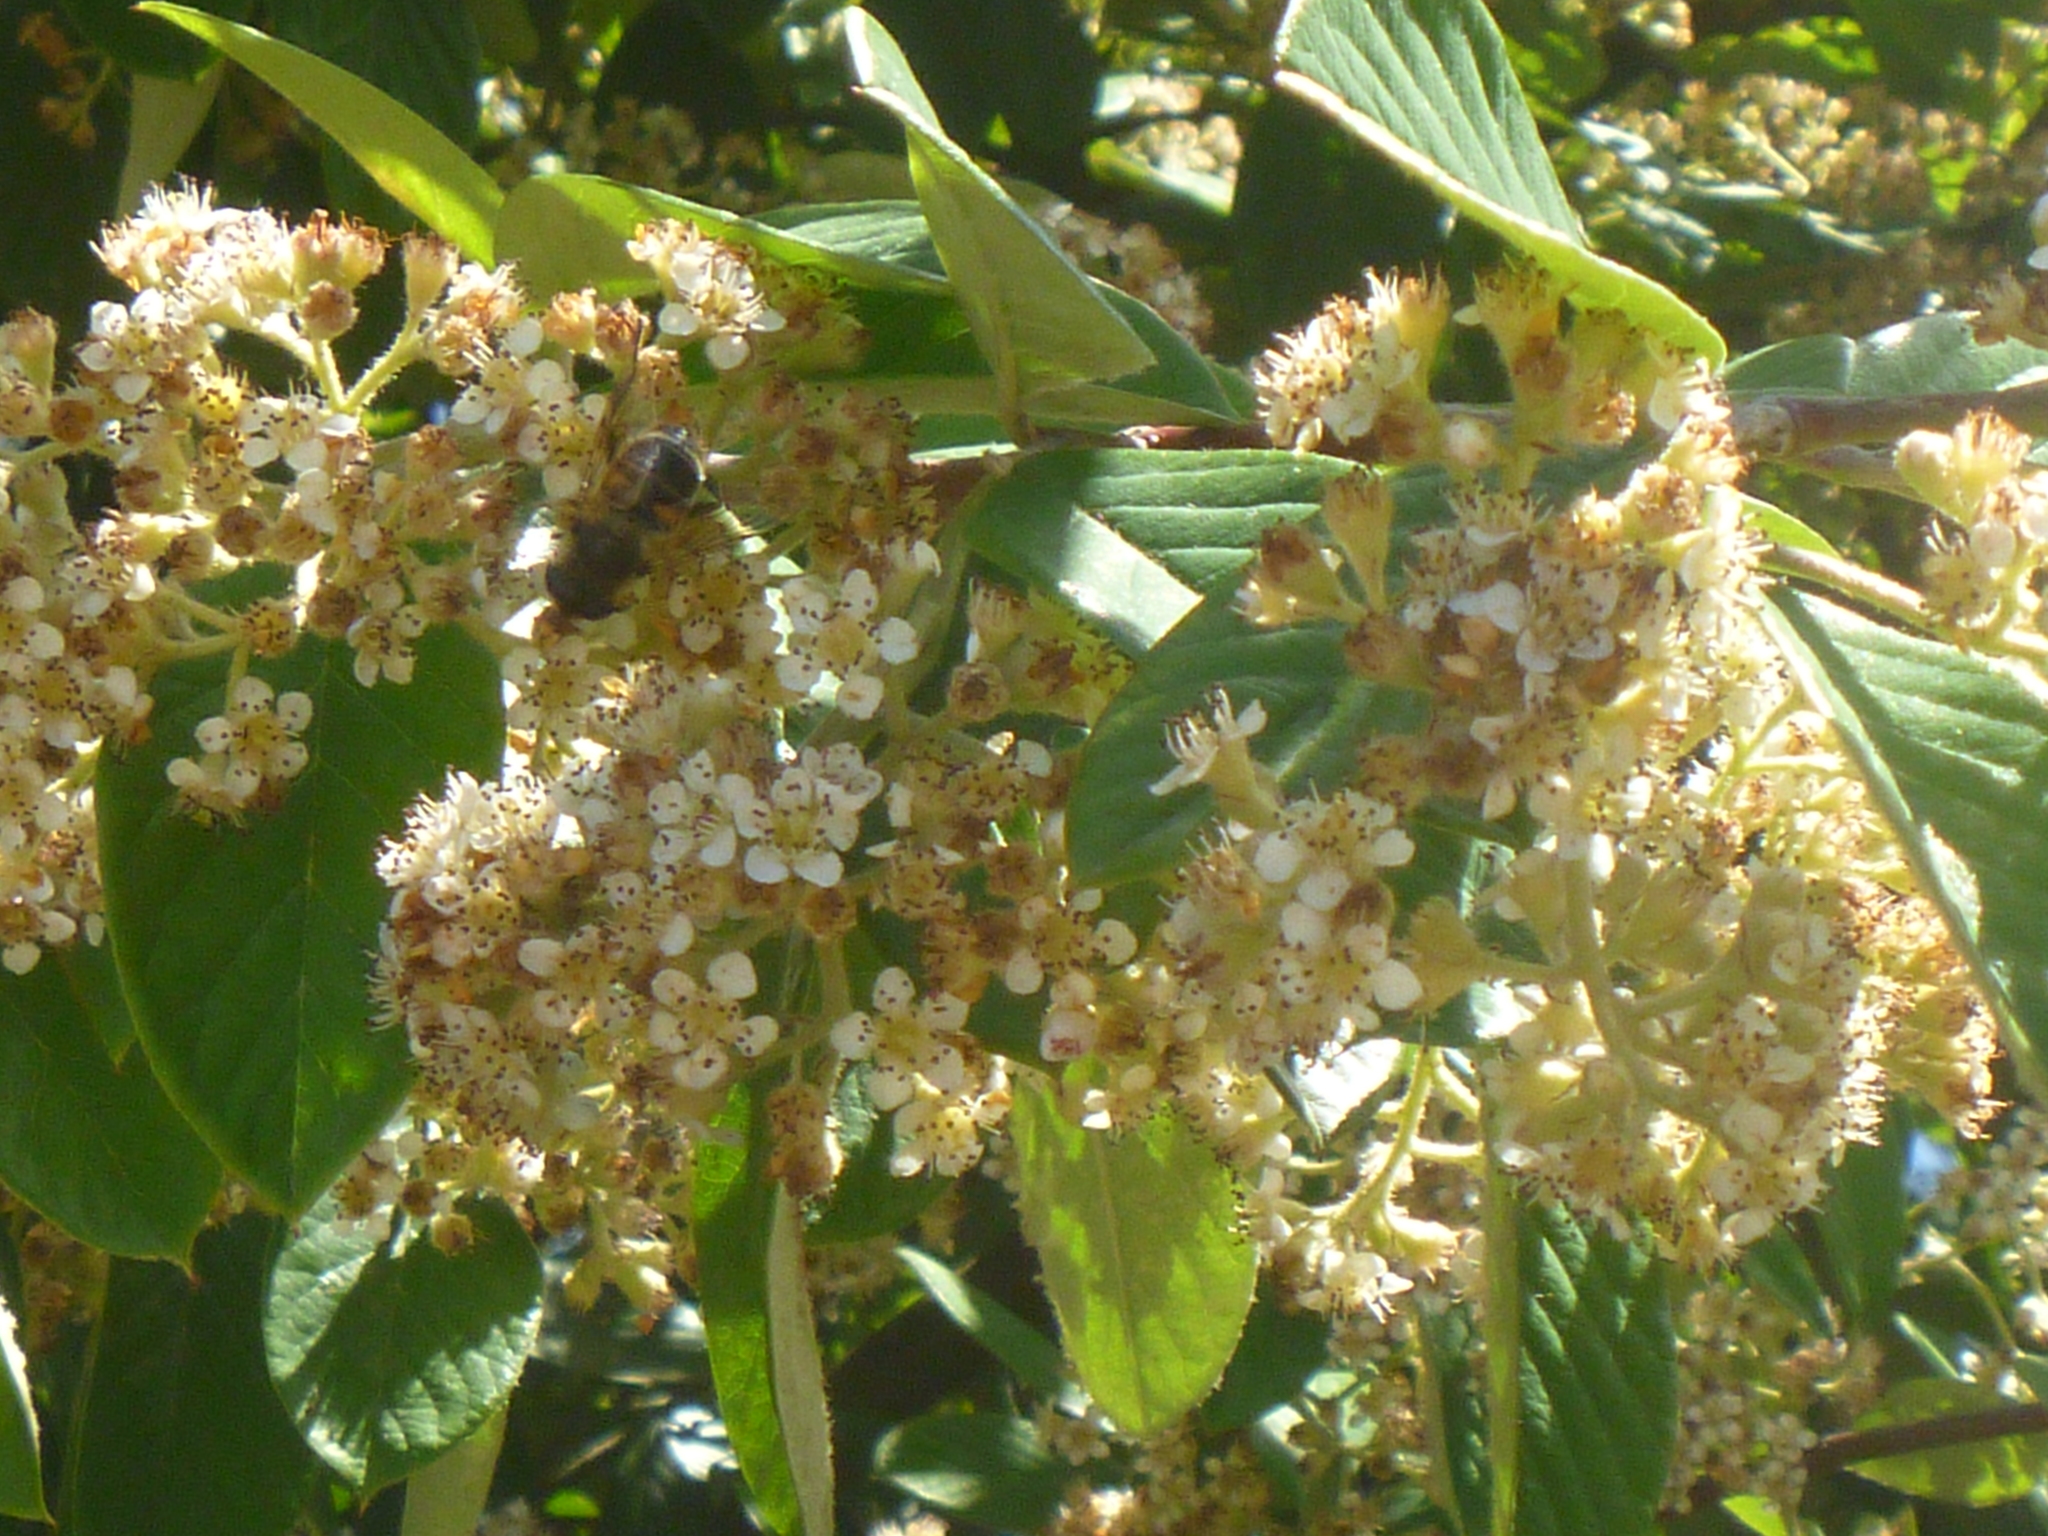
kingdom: Animalia
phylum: Arthropoda
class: Insecta
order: Diptera
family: Syrphidae
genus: Eristalis
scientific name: Eristalis tenax
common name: Drone fly
